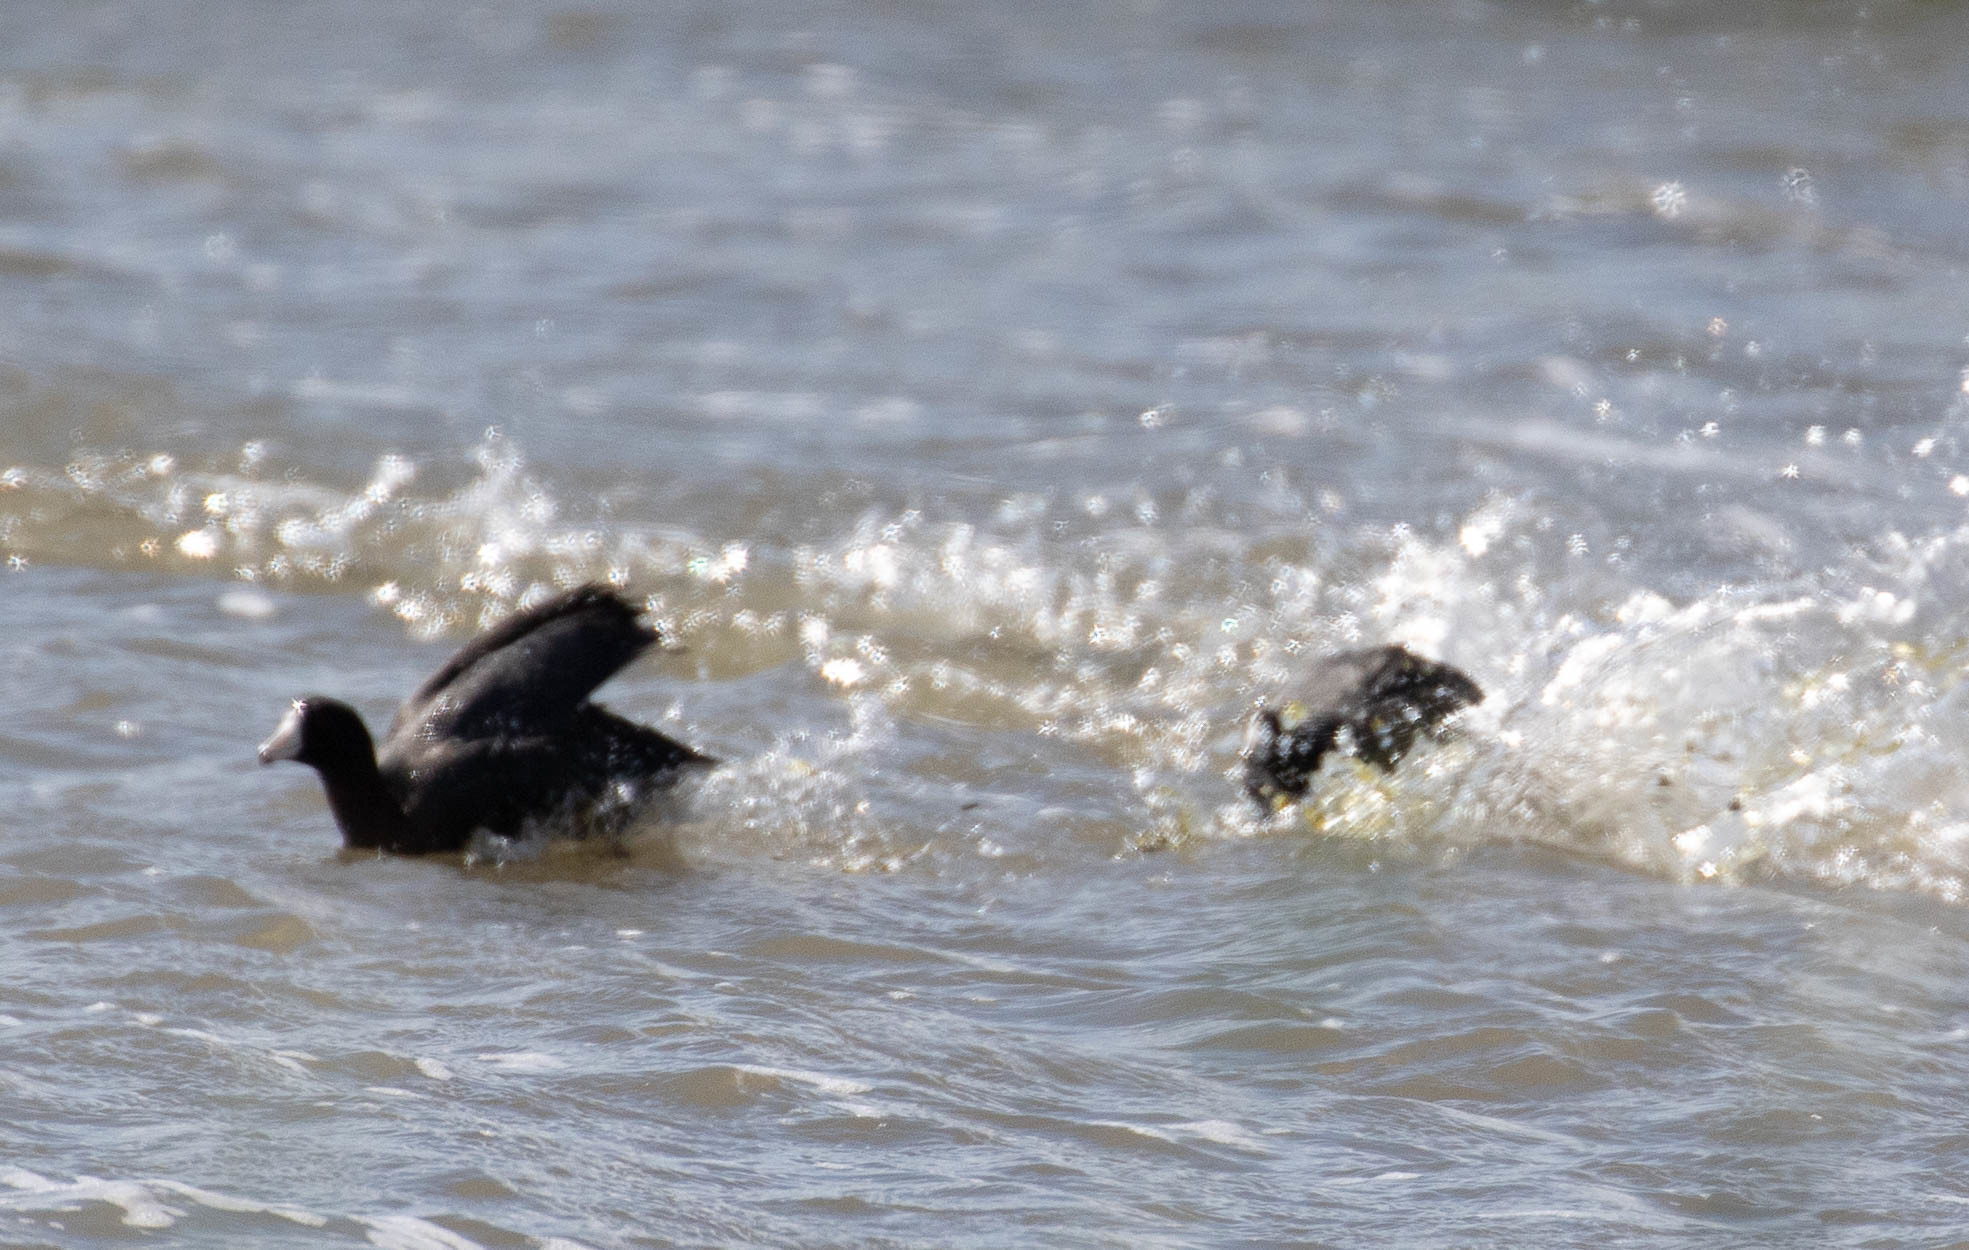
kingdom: Animalia
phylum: Chordata
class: Aves
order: Gruiformes
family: Rallidae
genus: Fulica
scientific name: Fulica americana
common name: American coot
